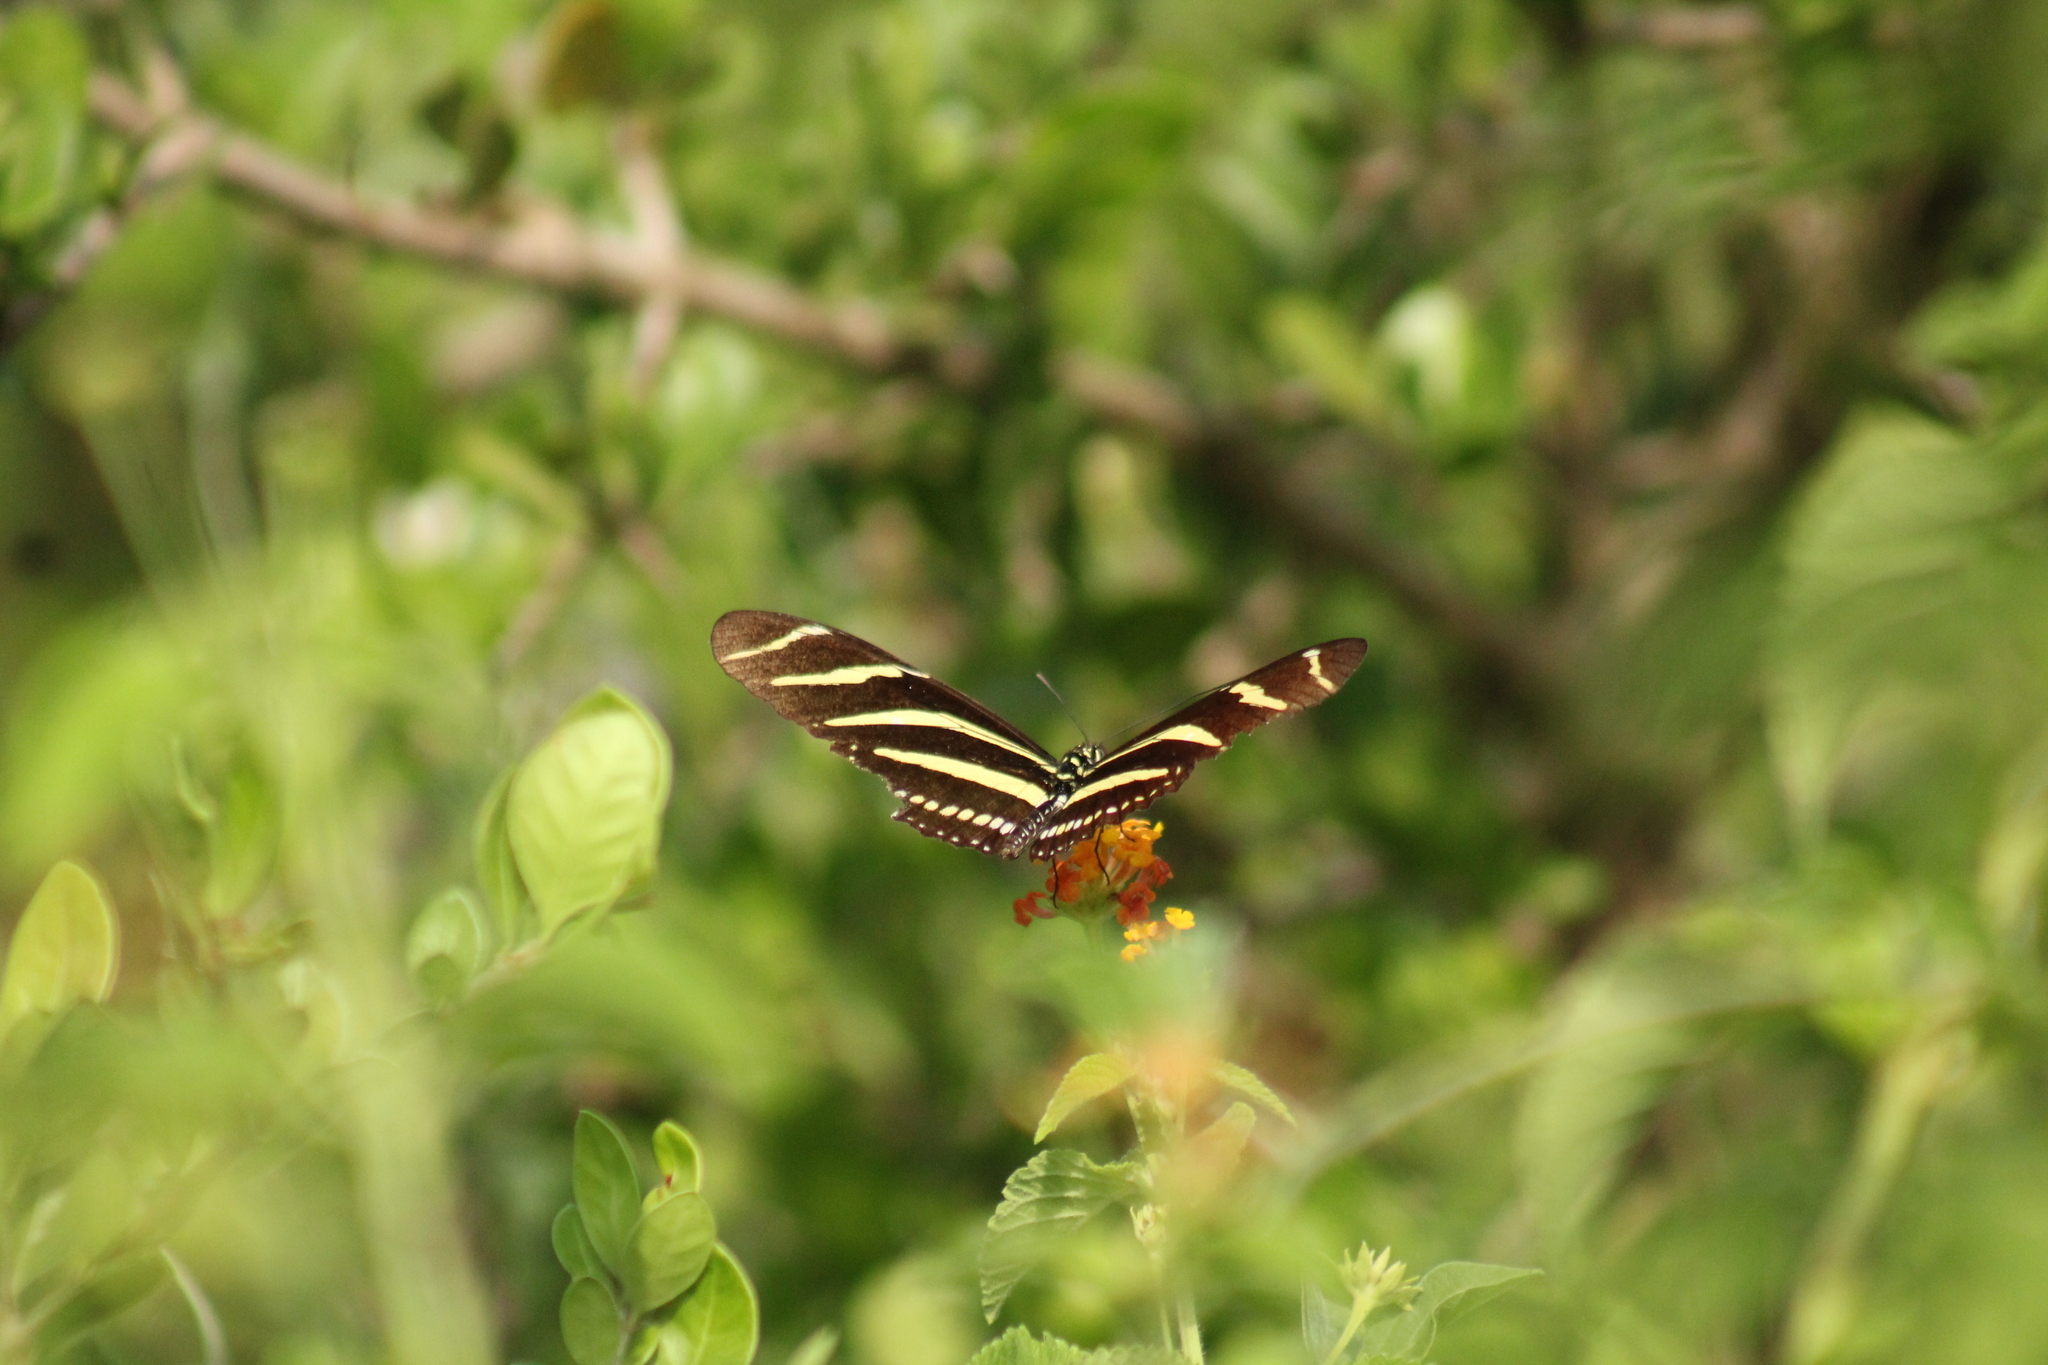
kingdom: Animalia
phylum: Arthropoda
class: Insecta
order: Lepidoptera
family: Nymphalidae
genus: Heliconius
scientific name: Heliconius charithonia
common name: Zebra long wing
